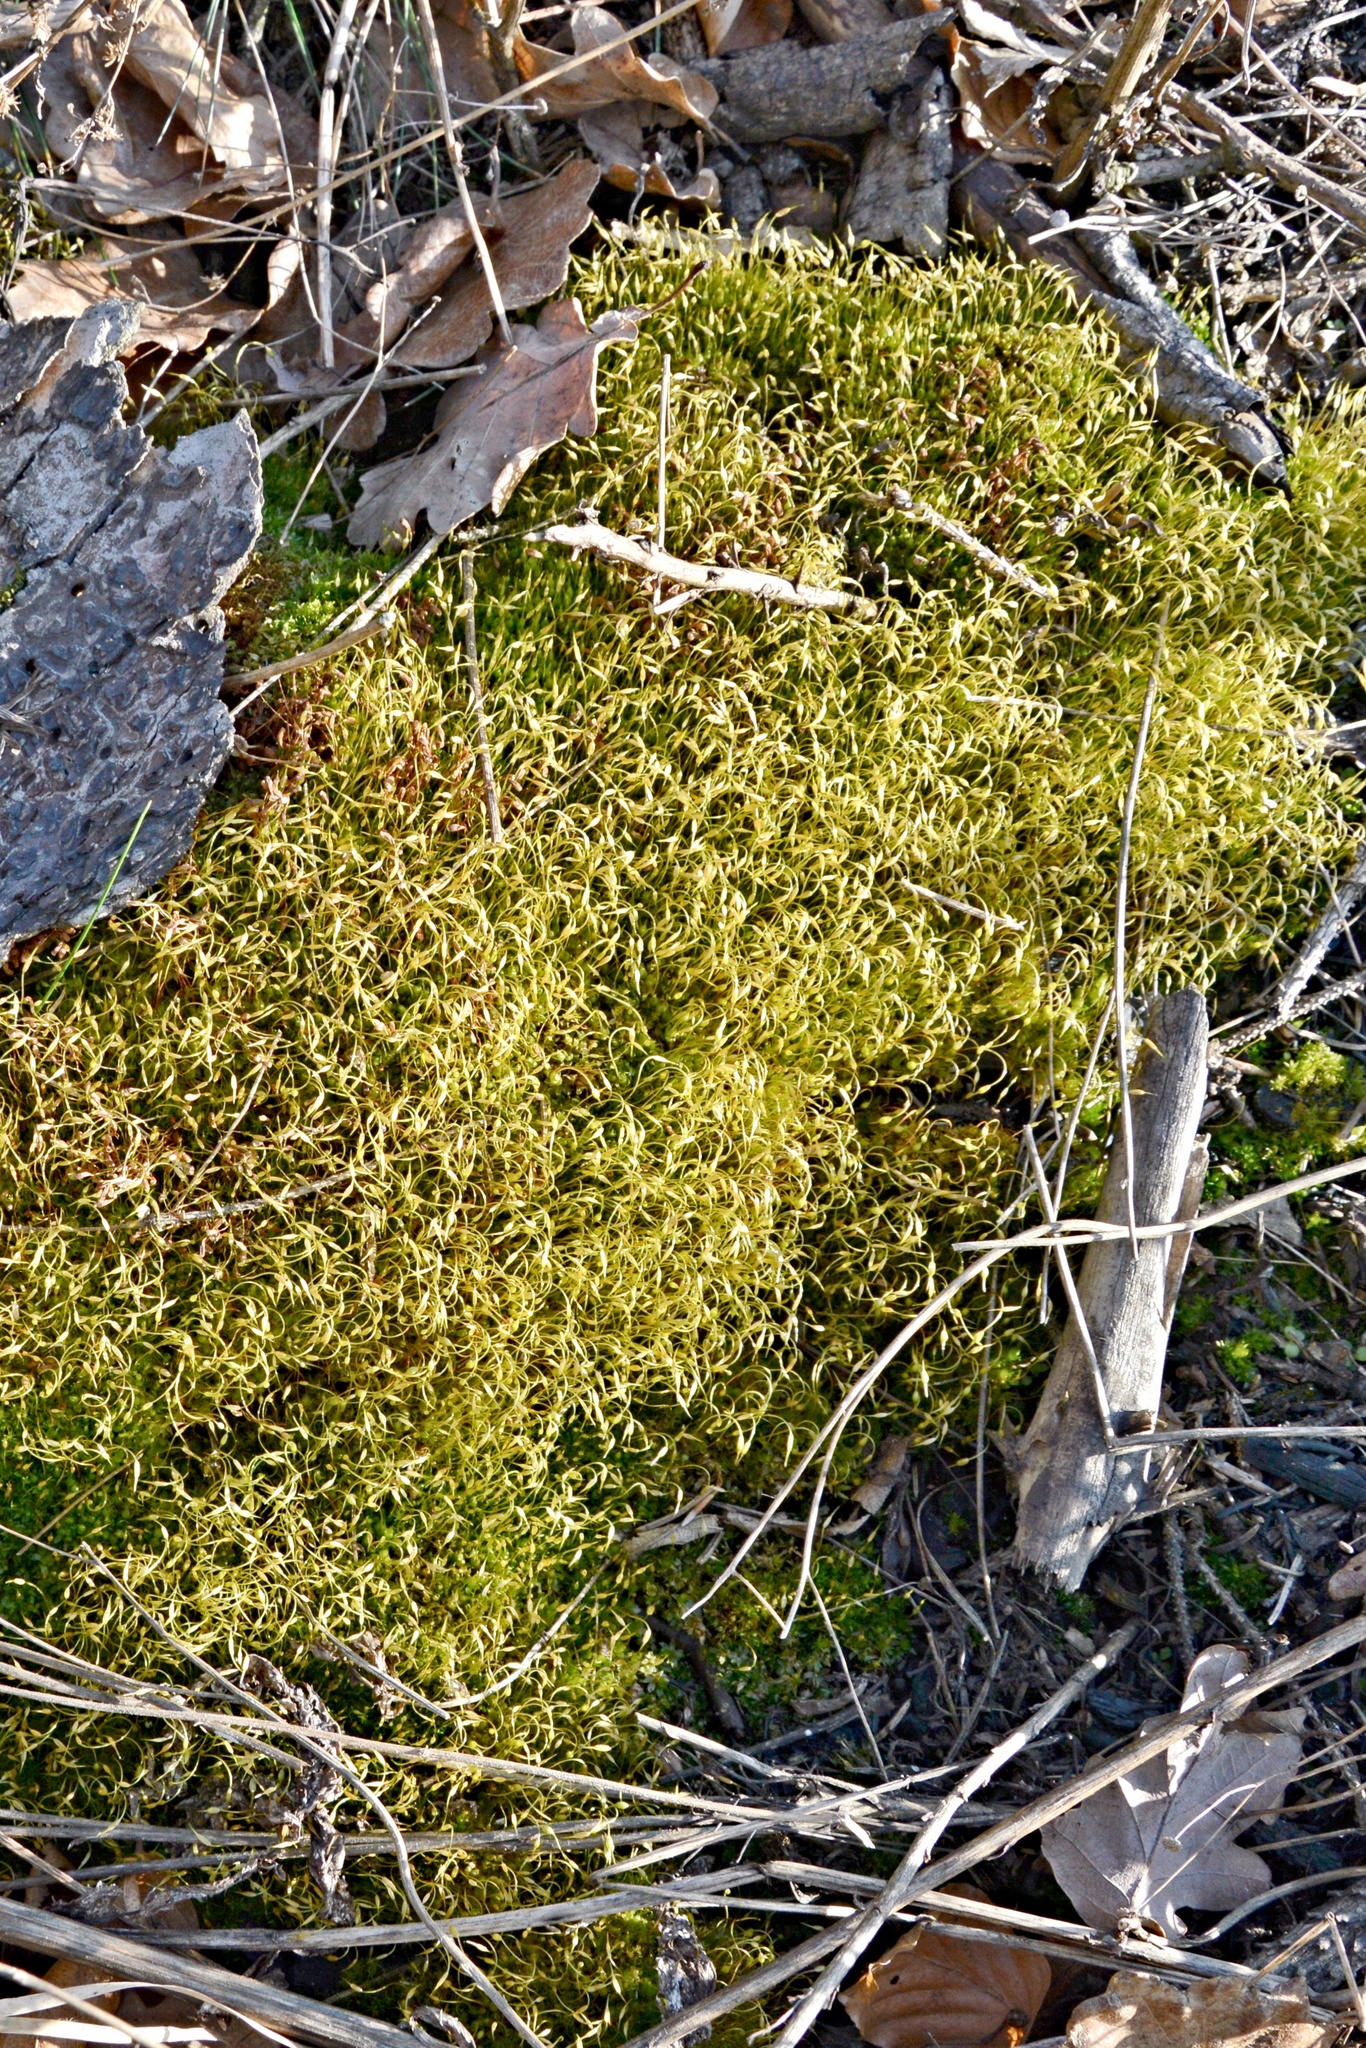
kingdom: Plantae
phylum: Bryophyta
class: Bryopsida
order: Funariales
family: Funariaceae
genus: Funaria
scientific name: Funaria hygrometrica
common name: Common cord moss
